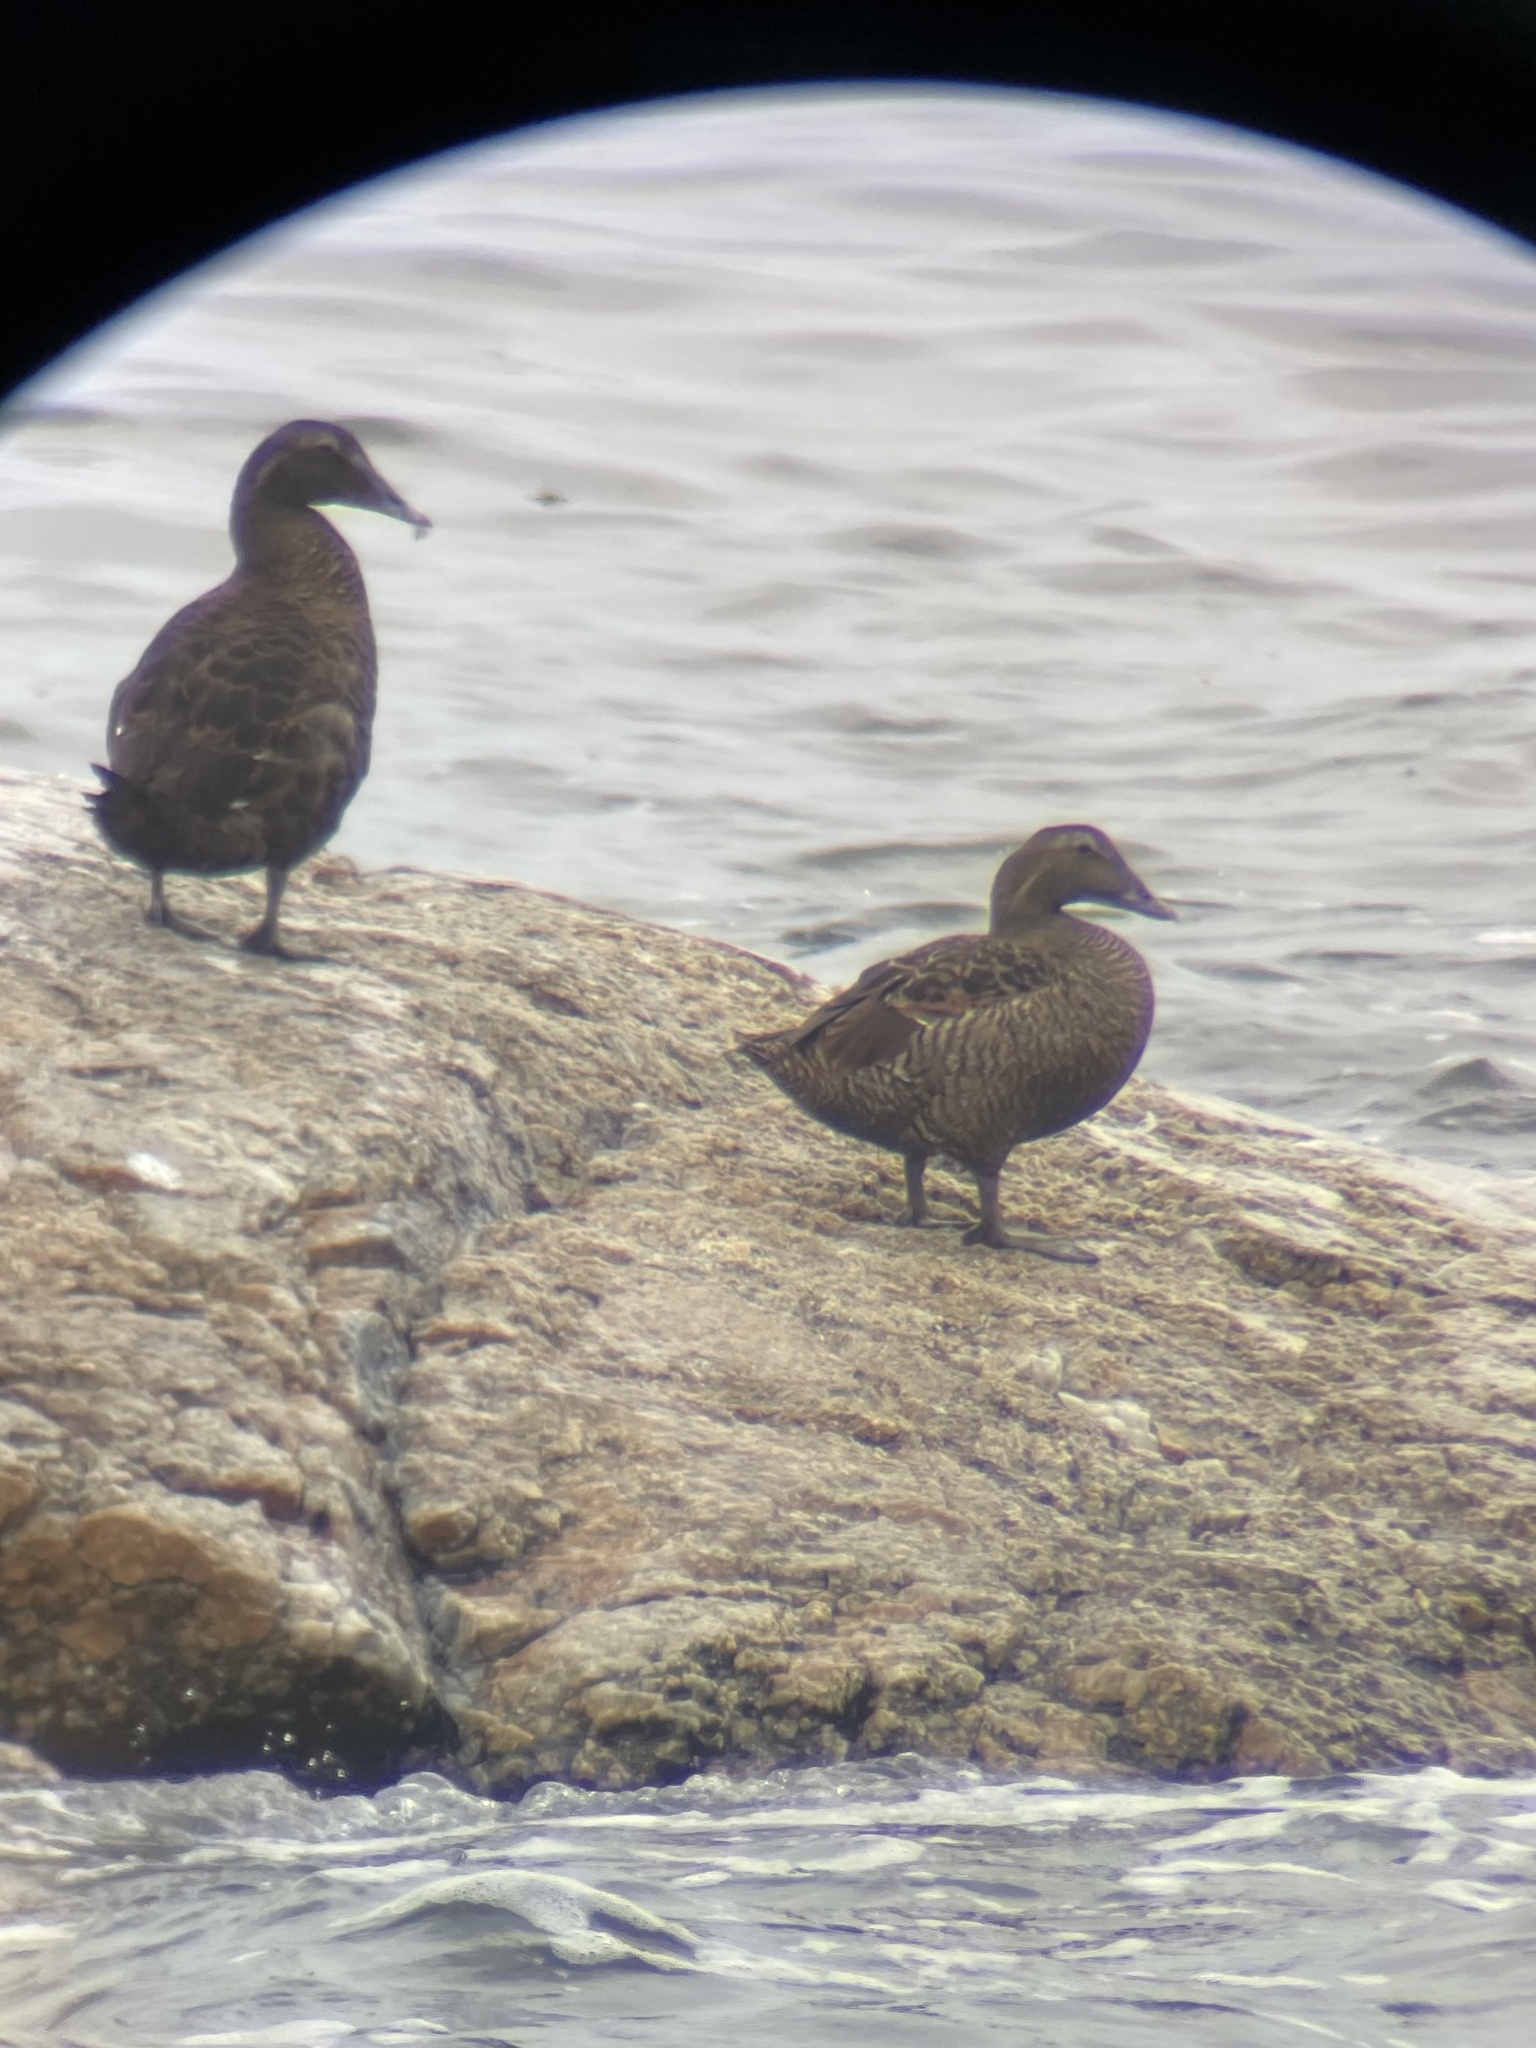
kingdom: Animalia
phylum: Chordata
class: Aves
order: Anseriformes
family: Anatidae
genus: Somateria
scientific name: Somateria mollissima
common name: Common eider
